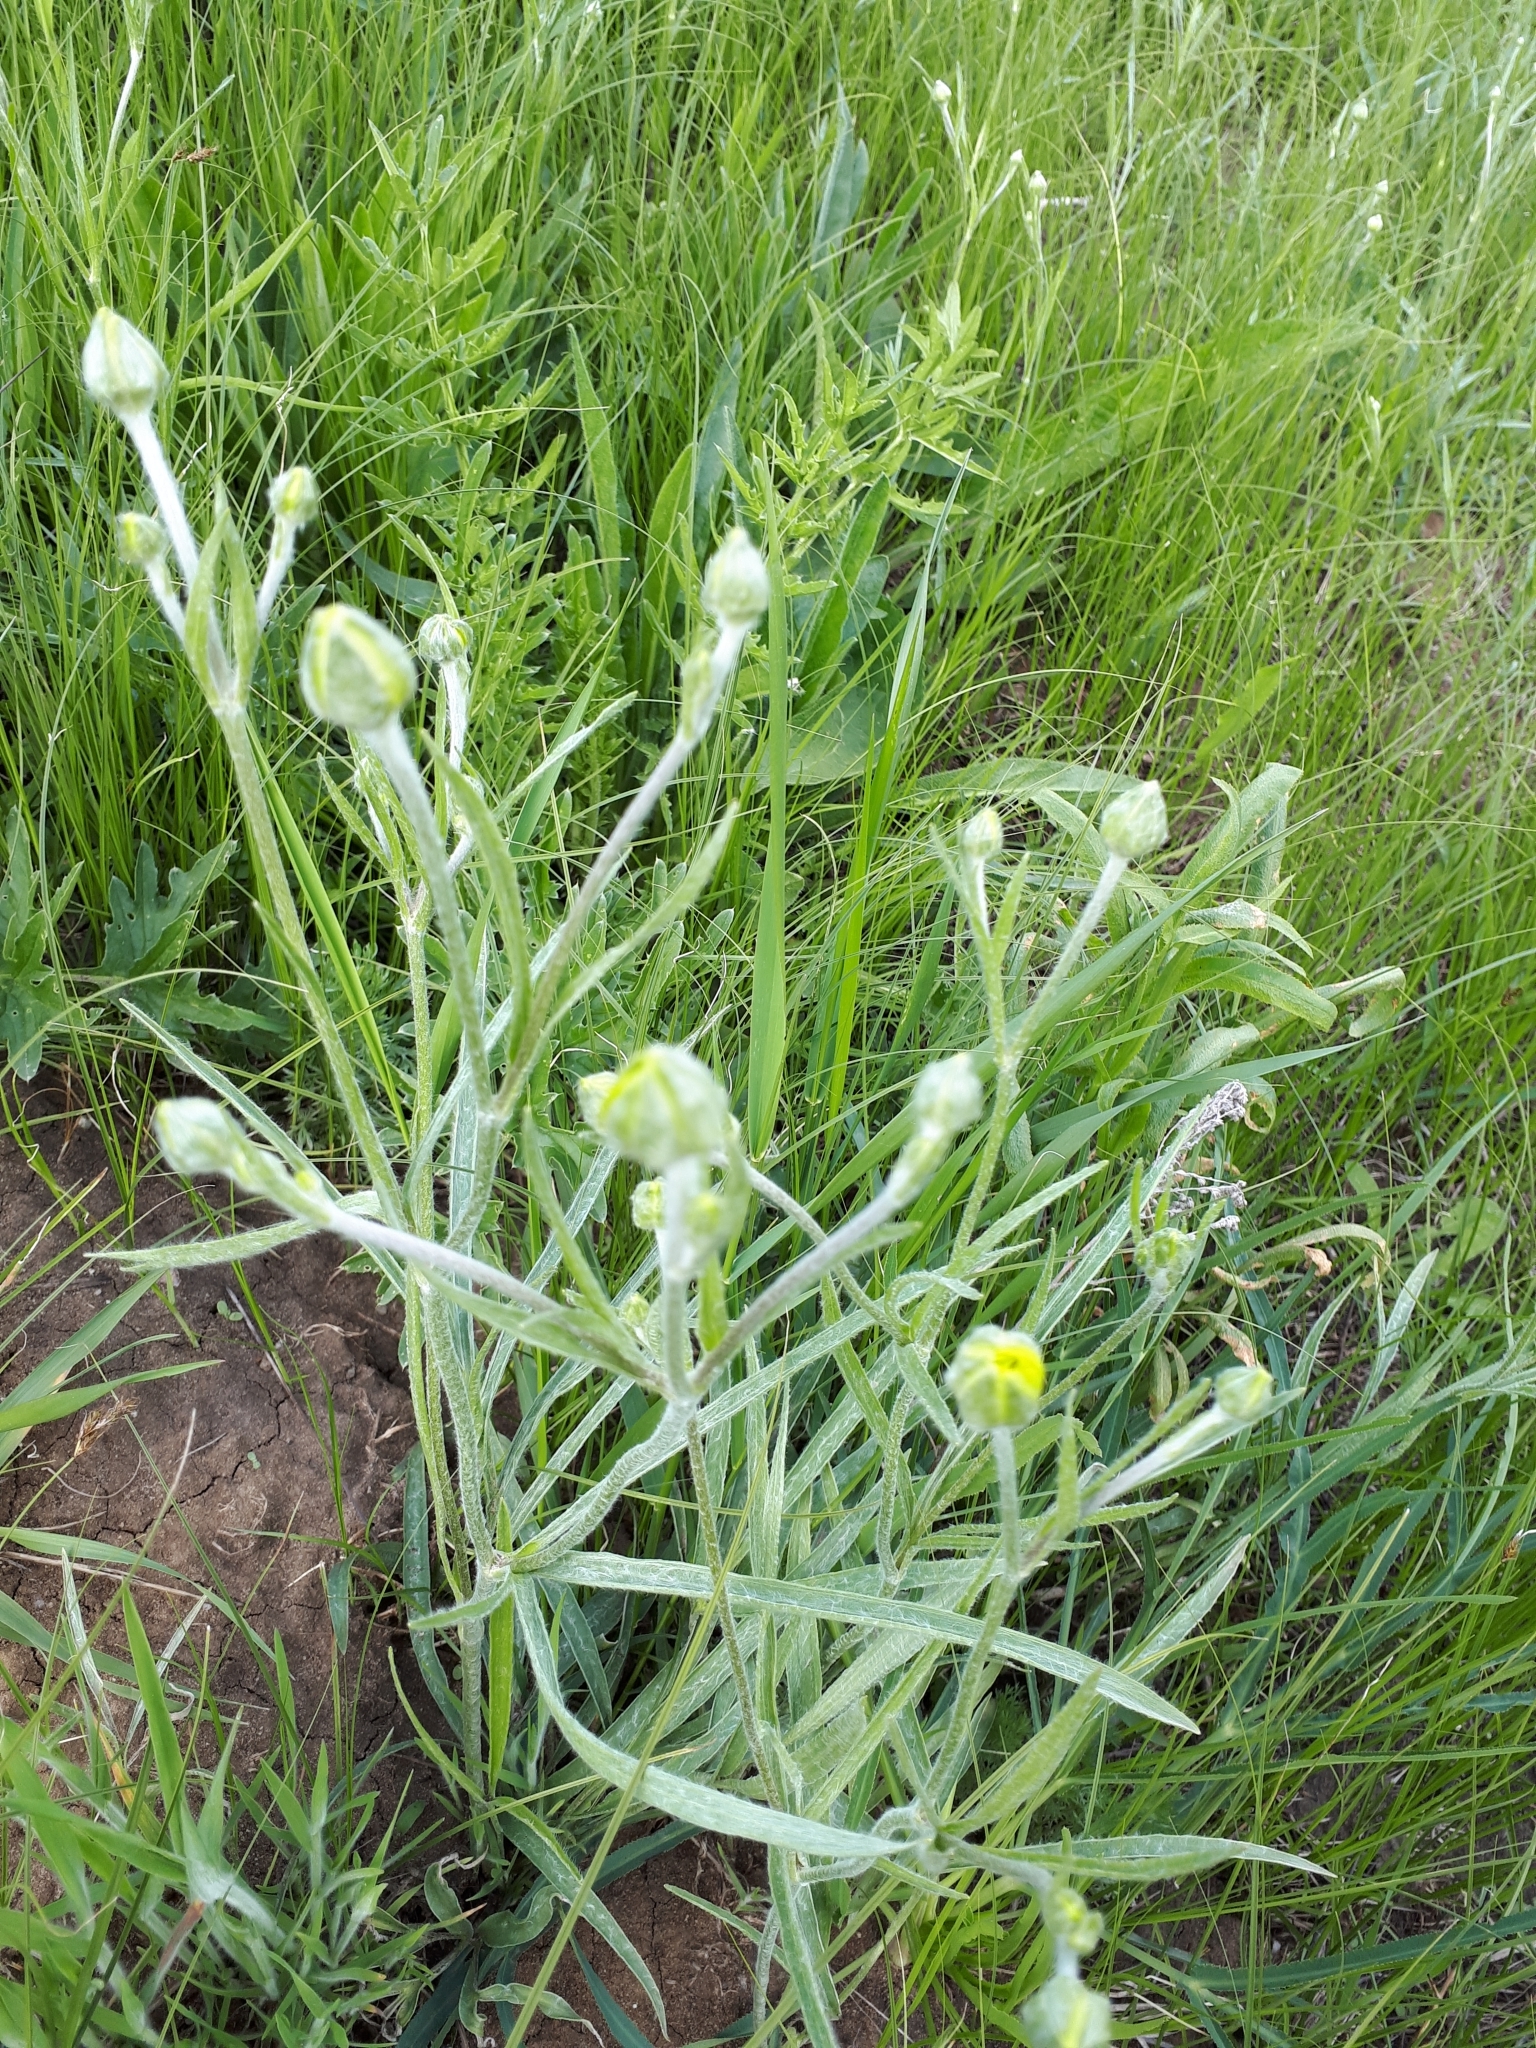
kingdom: Plantae
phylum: Tracheophyta
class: Magnoliopsida
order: Ranunculales
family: Ranunculaceae
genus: Ranunculus
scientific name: Ranunculus illyricus
